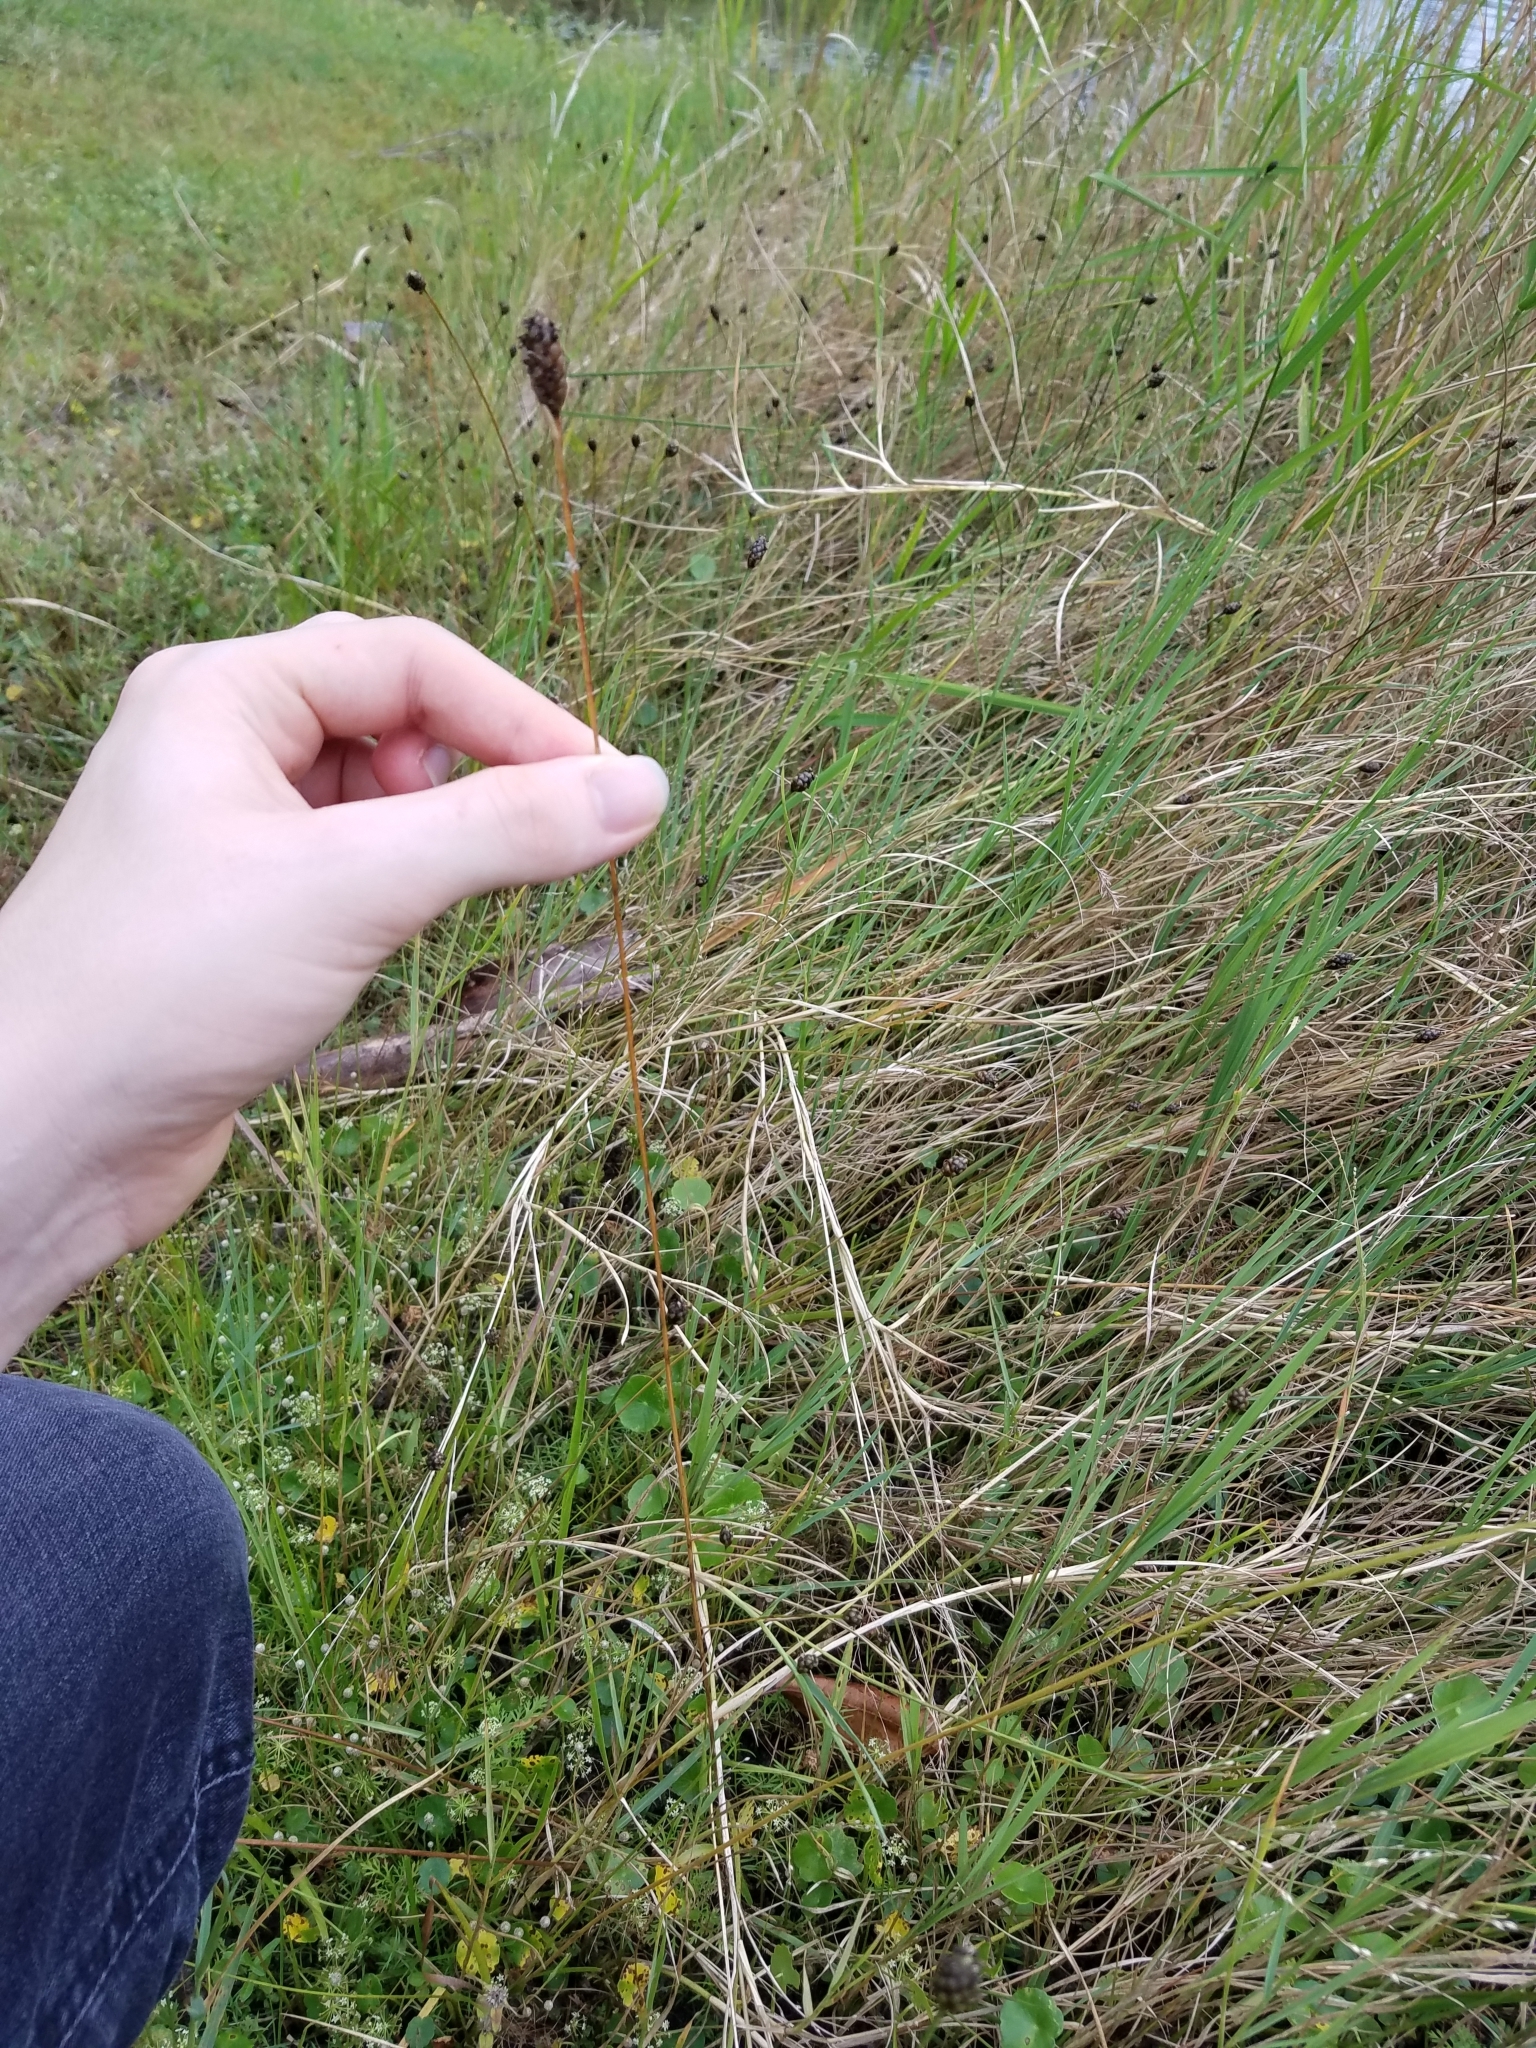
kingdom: Plantae
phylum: Tracheophyta
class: Liliopsida
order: Poales
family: Xyridaceae
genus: Xyris
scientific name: Xyris jupicai
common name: Richard's yelloweyed grass
